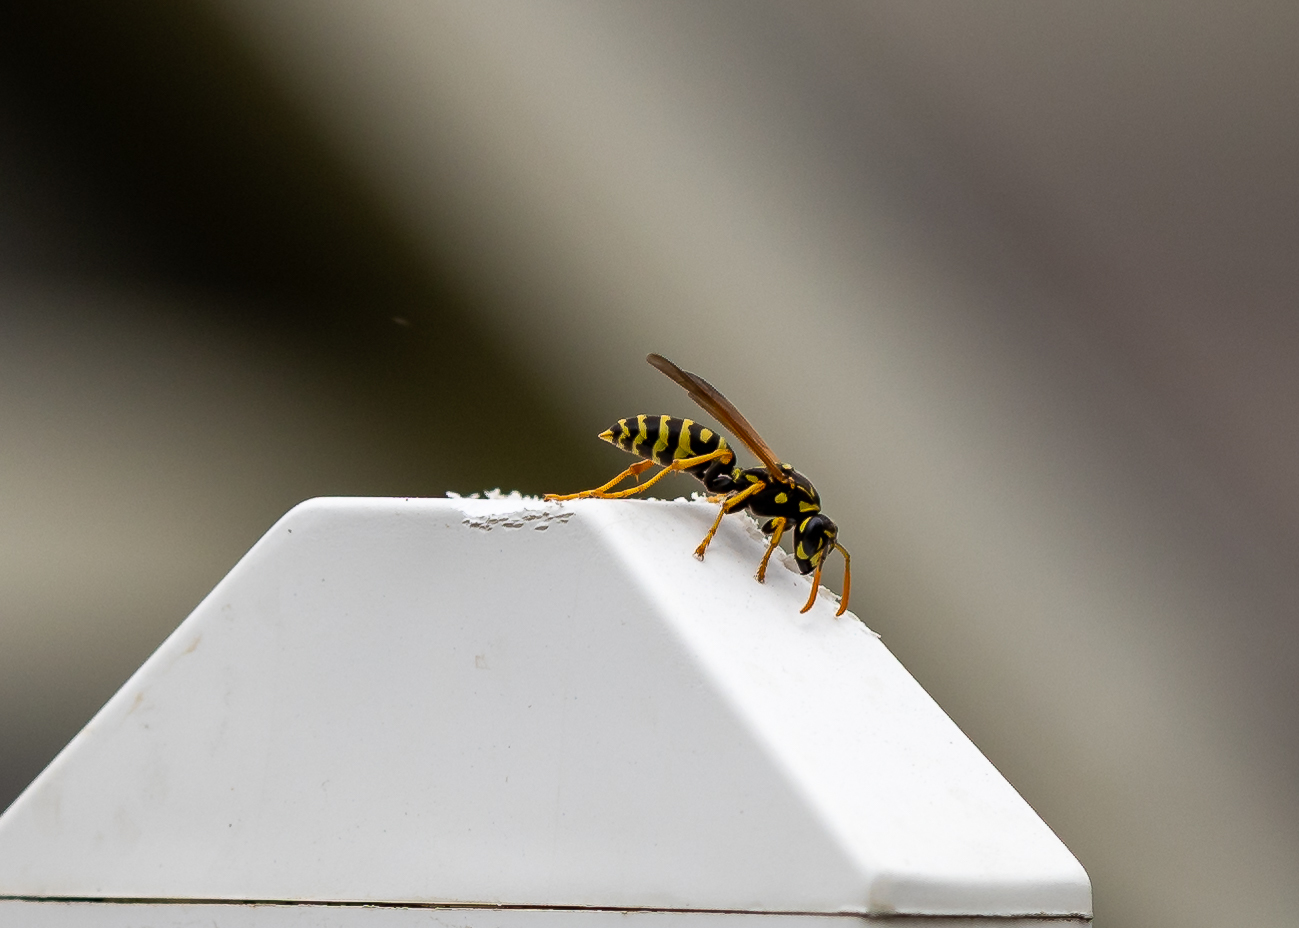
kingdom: Animalia
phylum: Arthropoda
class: Insecta
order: Hymenoptera
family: Eumenidae
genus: Polistes
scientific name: Polistes dominula
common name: Paper wasp
